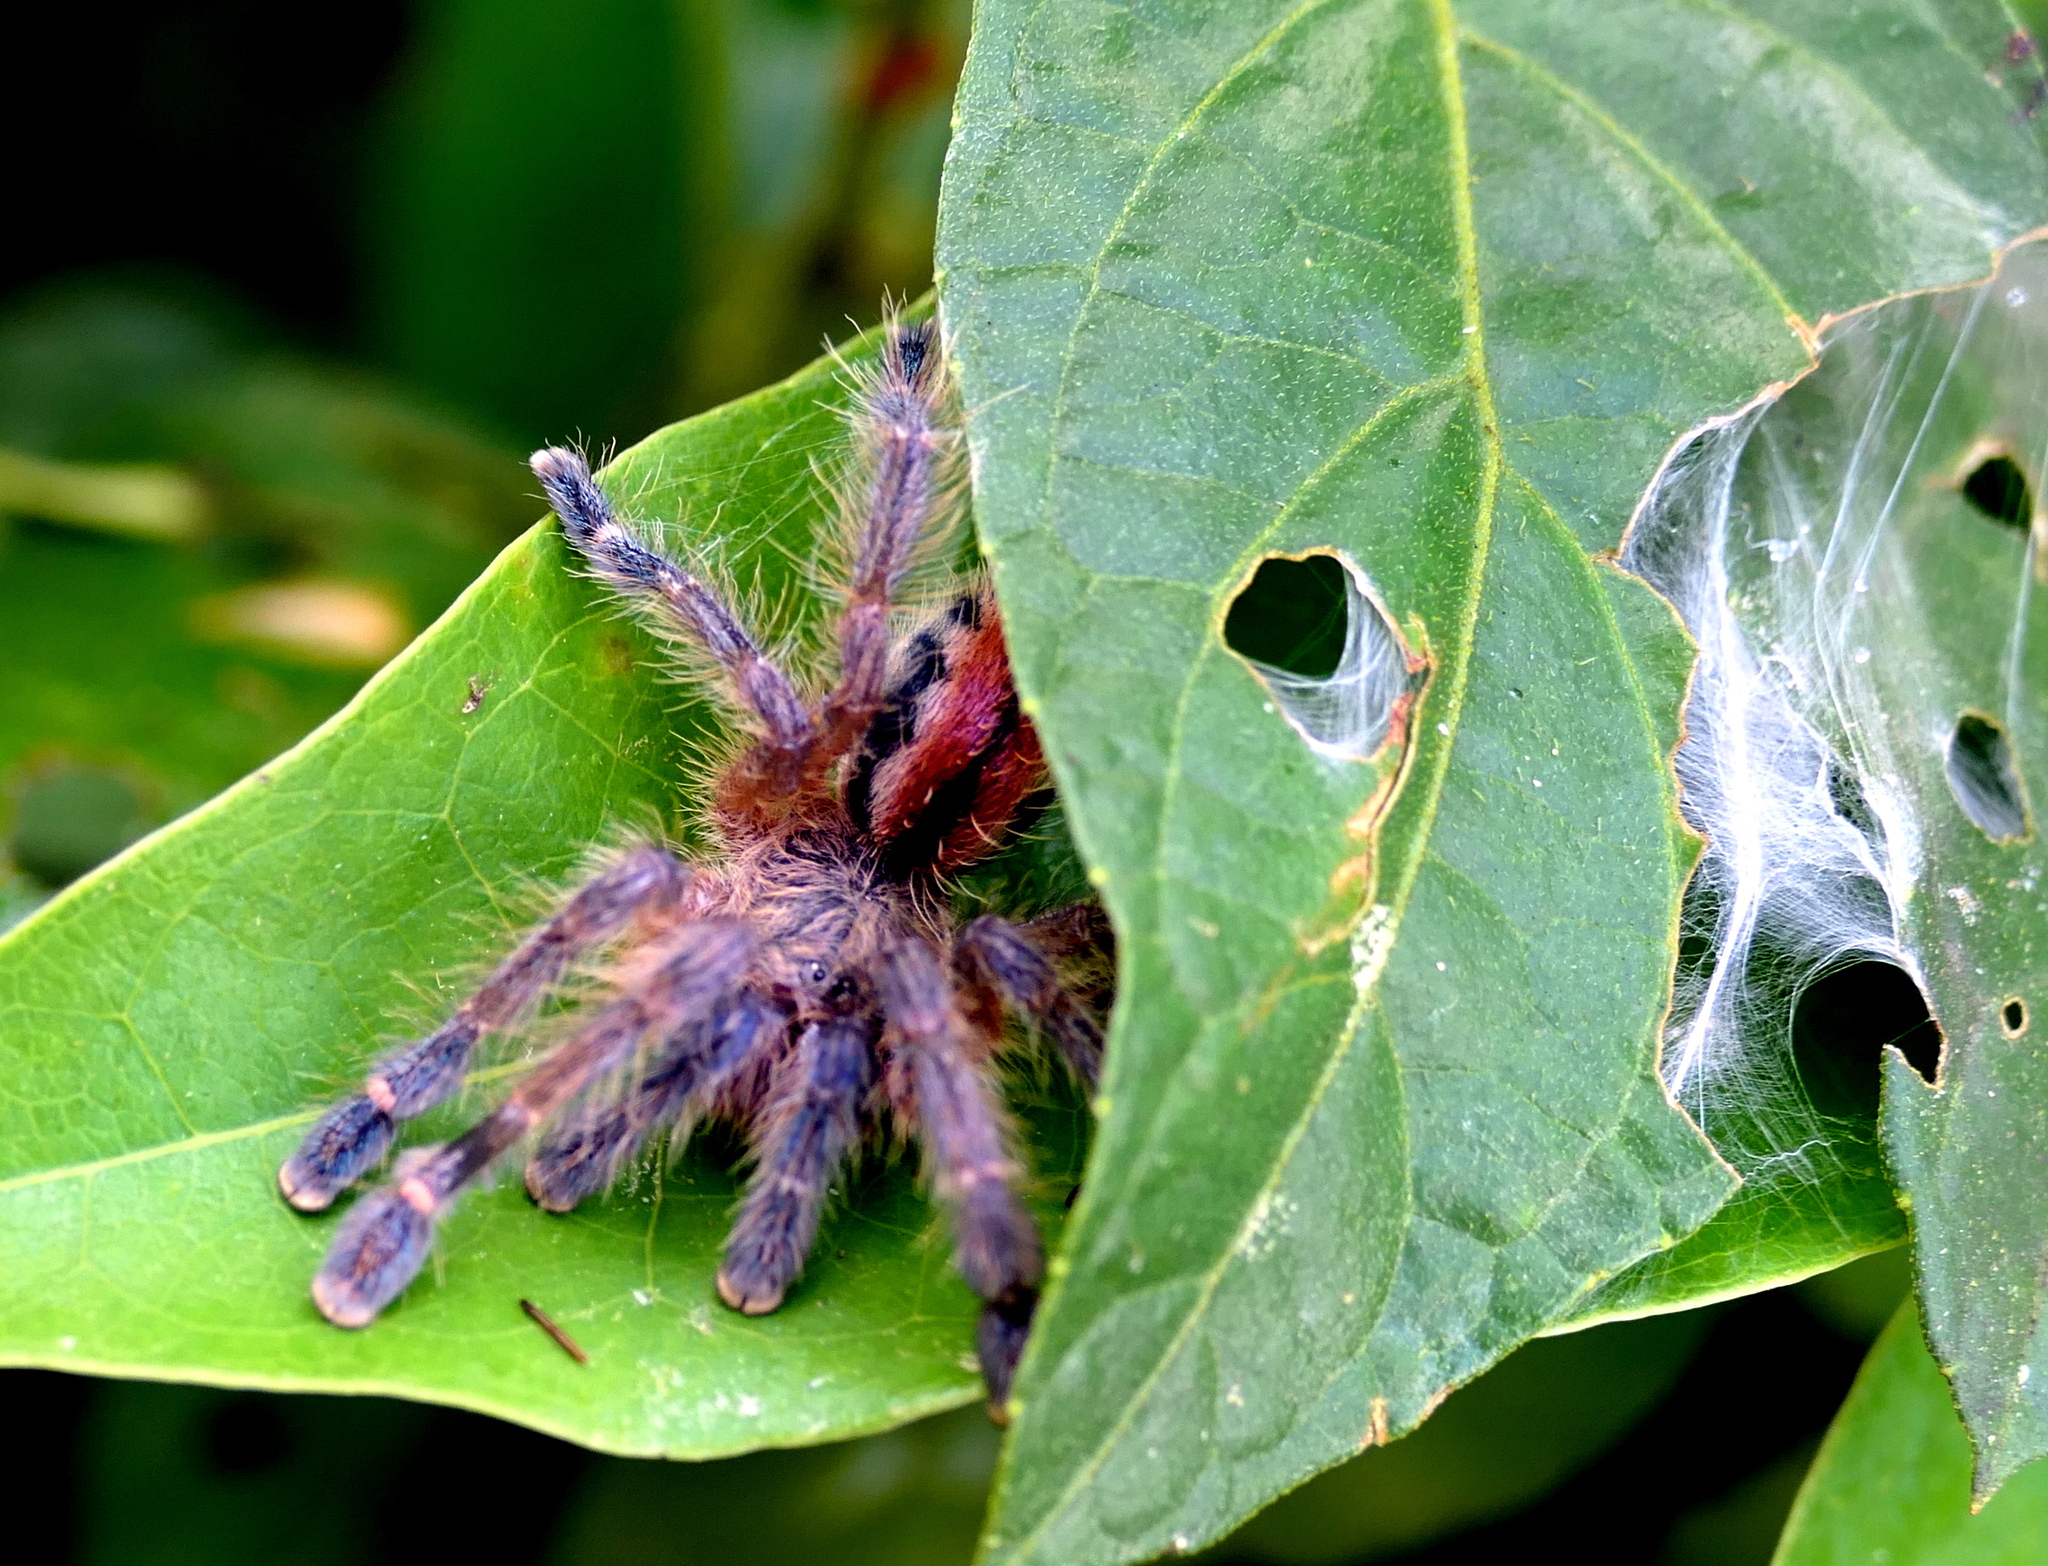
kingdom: Animalia
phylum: Arthropoda
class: Arachnida
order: Araneae
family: Theraphosidae
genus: Iridopelma
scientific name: Iridopelma hirsutum
